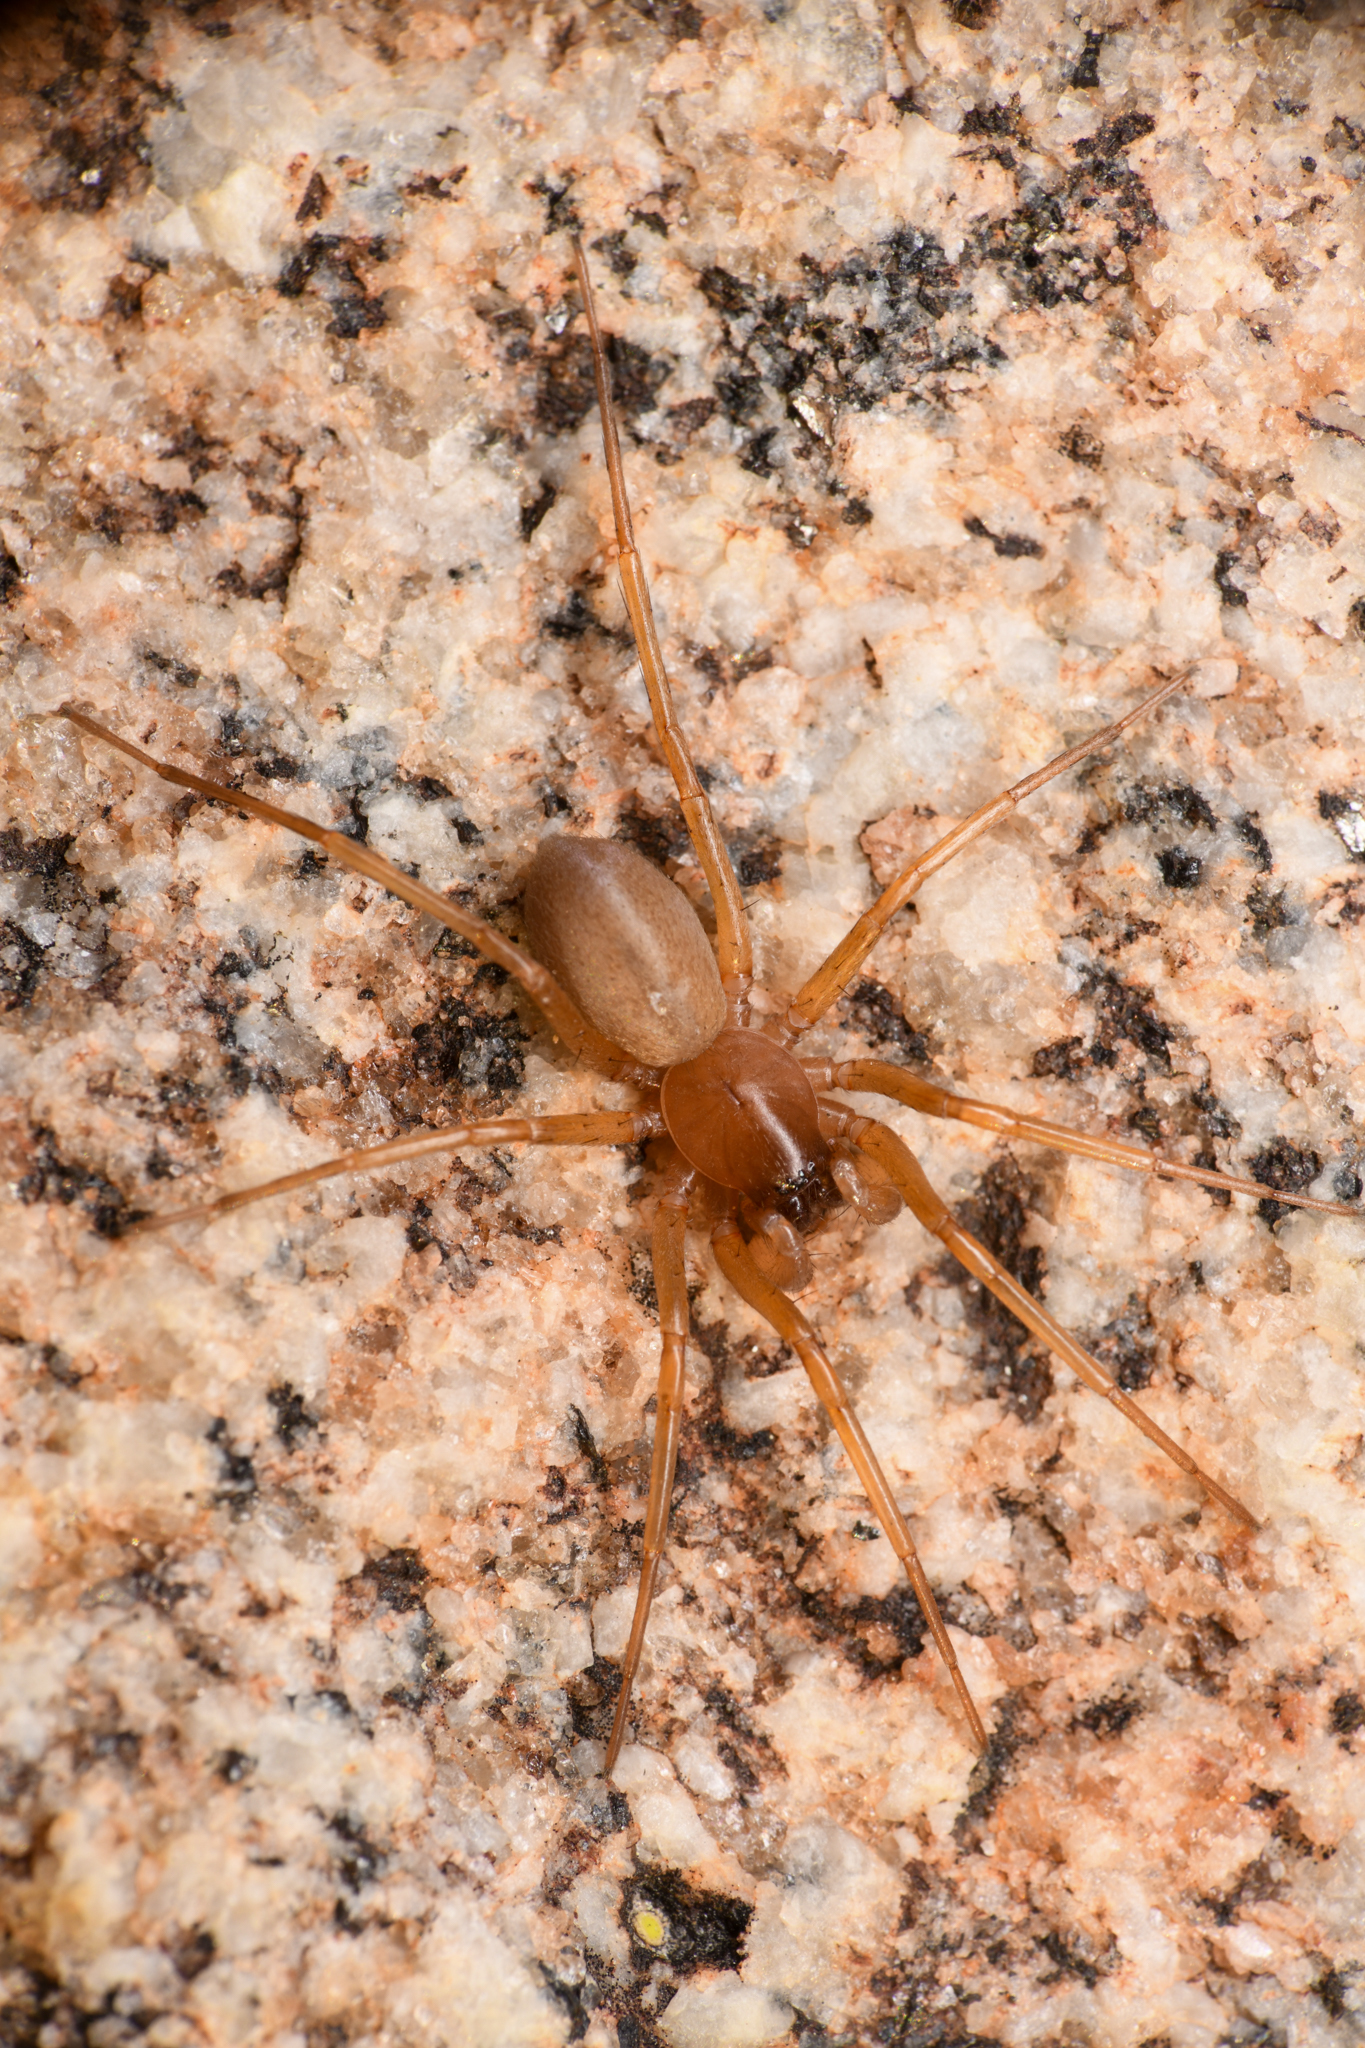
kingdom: Animalia
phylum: Arthropoda
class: Arachnida
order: Araneae
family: Corinnidae
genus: Creugas
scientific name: Creugas bajulus
